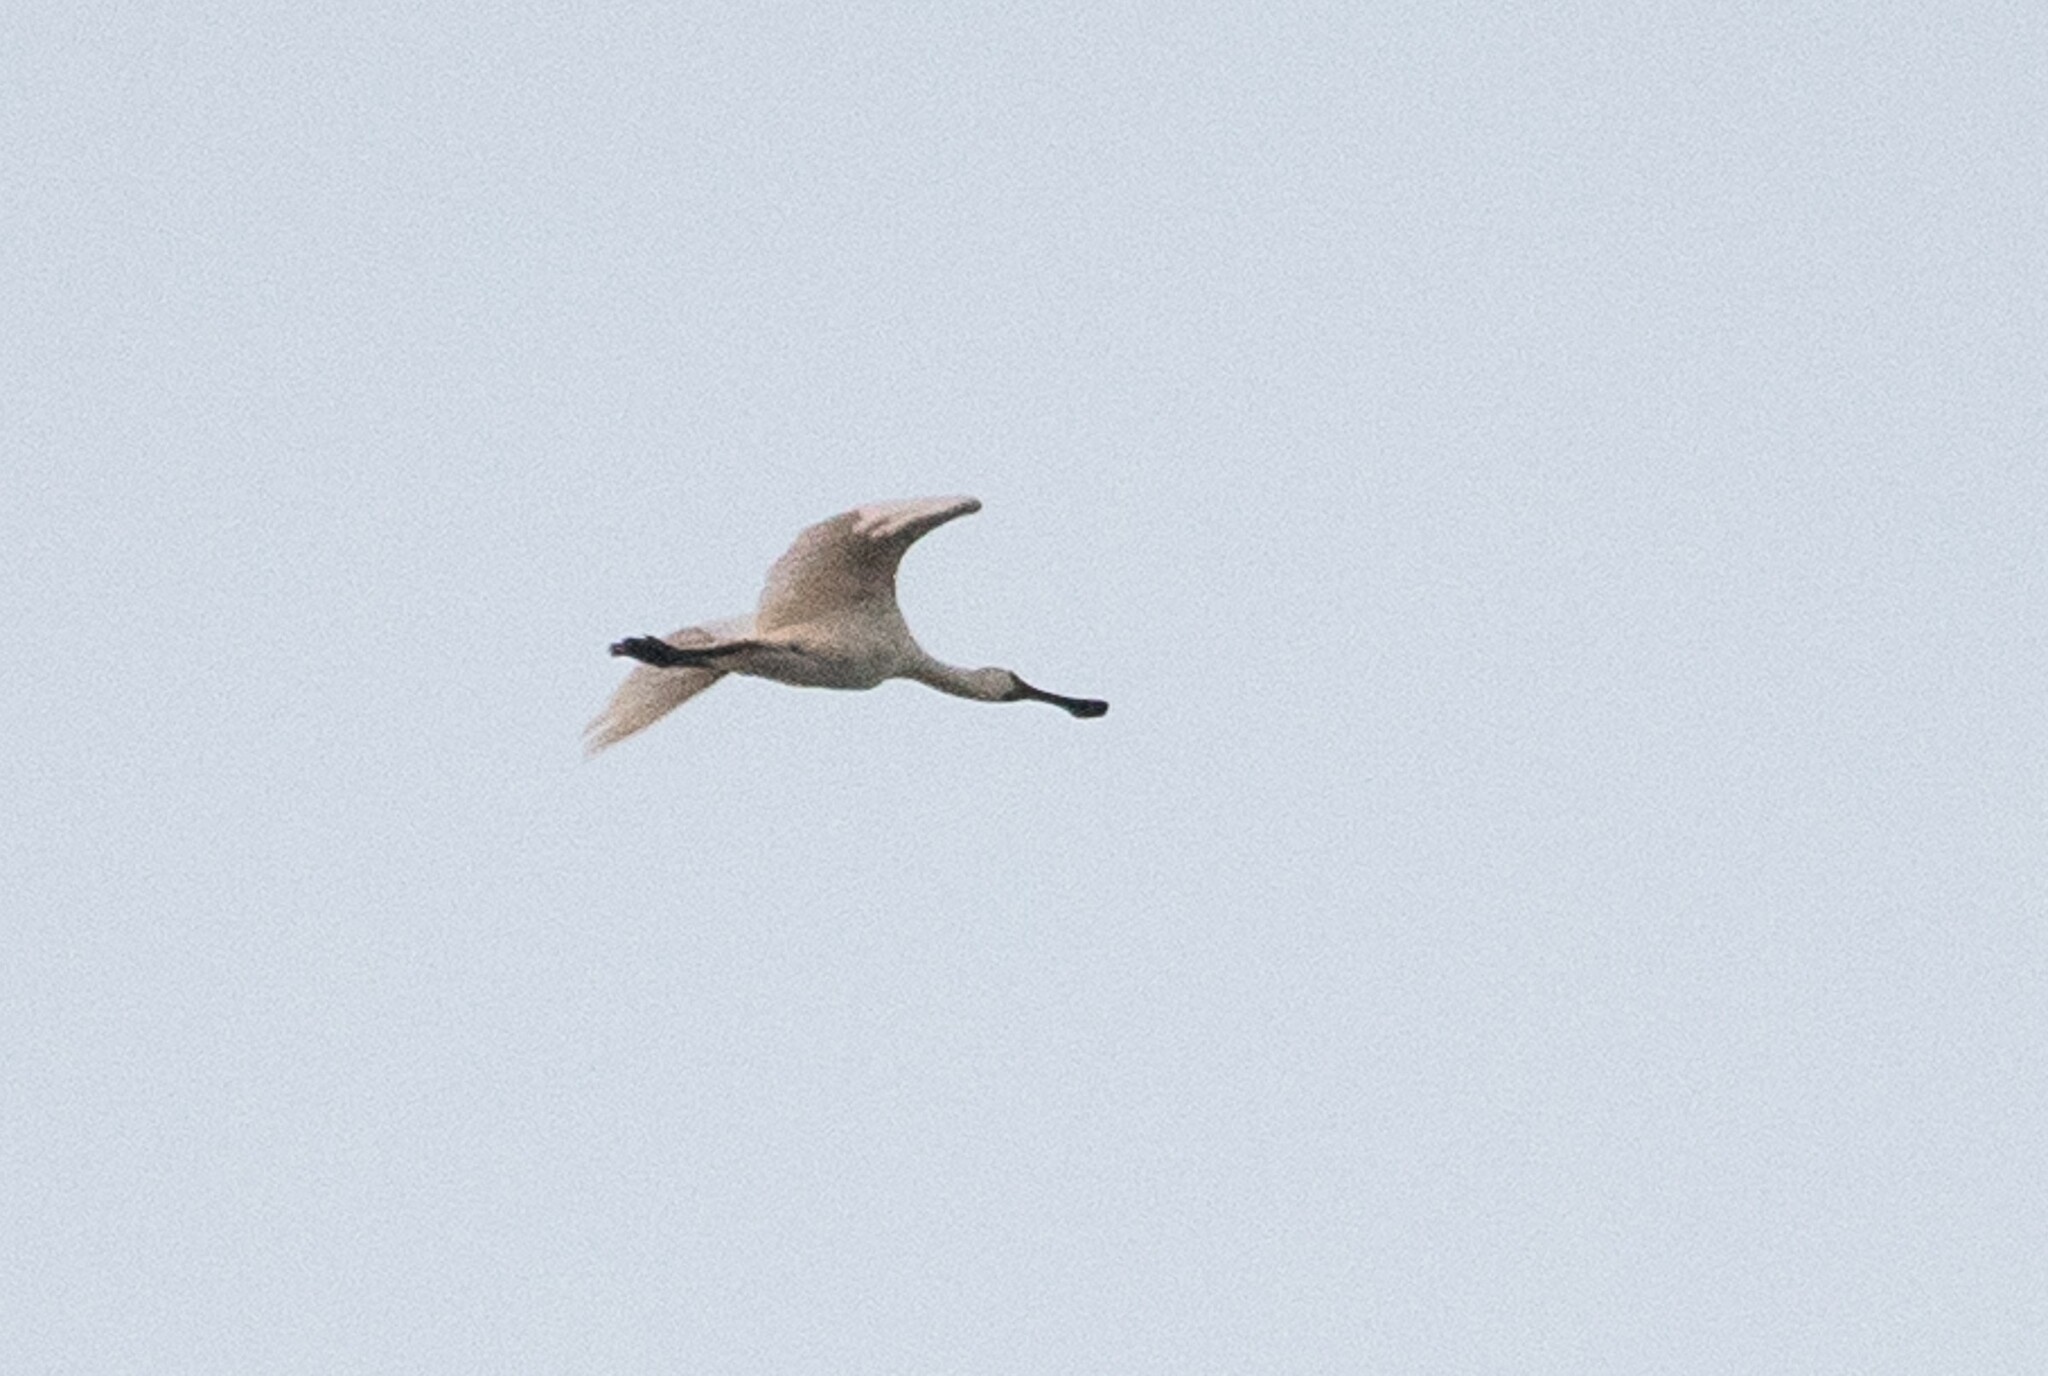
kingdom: Animalia
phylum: Chordata
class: Aves
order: Pelecaniformes
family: Threskiornithidae
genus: Platalea
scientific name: Platalea regia
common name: Royal spoonbill
